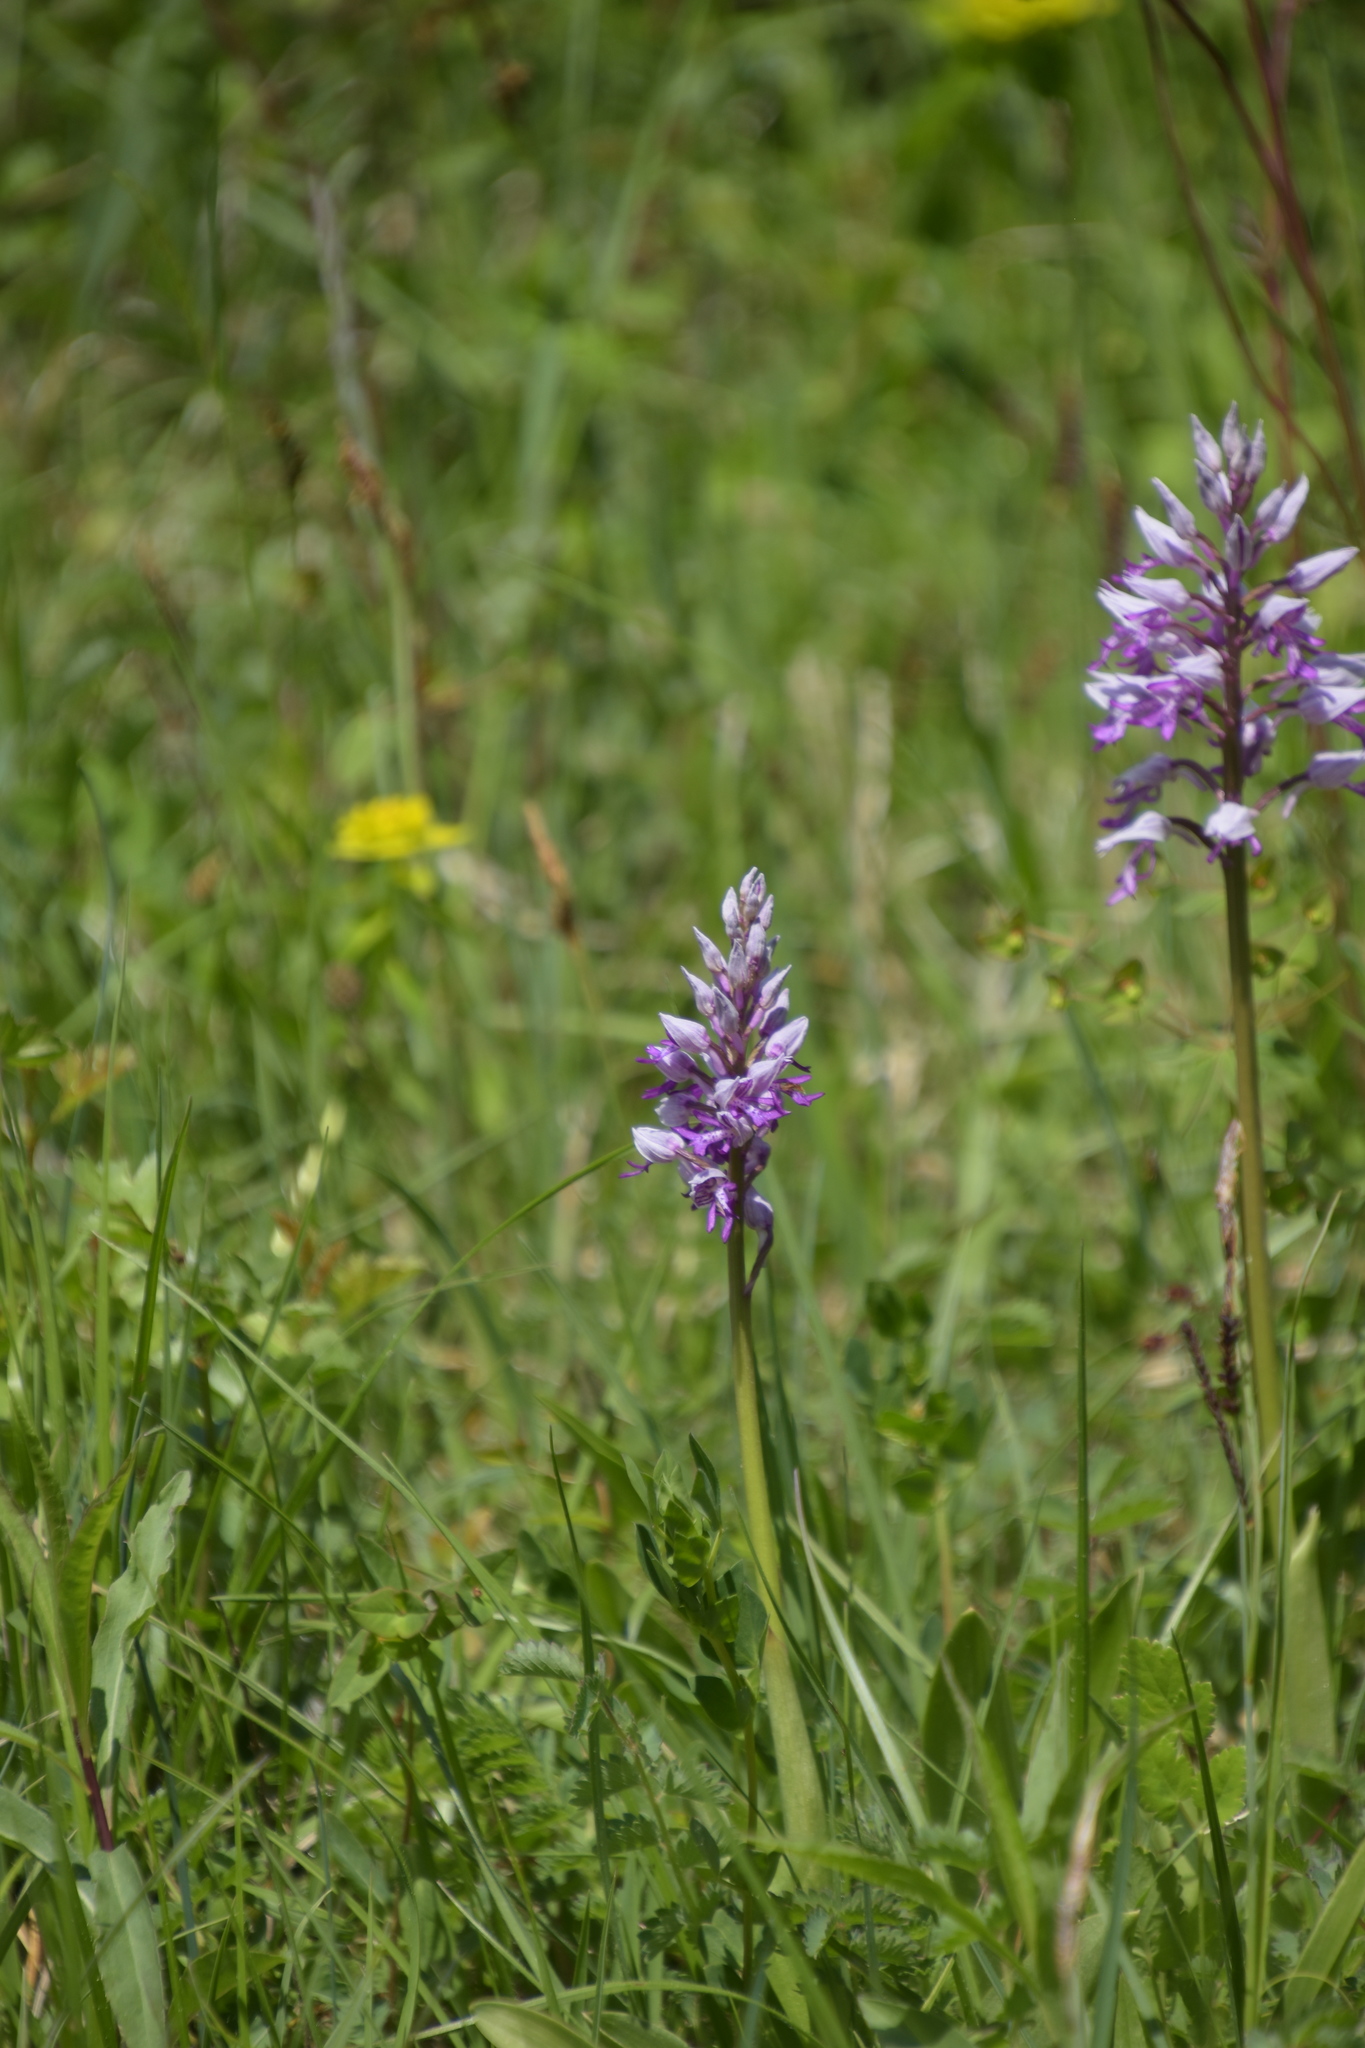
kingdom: Plantae
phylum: Tracheophyta
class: Liliopsida
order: Asparagales
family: Orchidaceae
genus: Orchis
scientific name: Orchis militaris
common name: Military orchid
